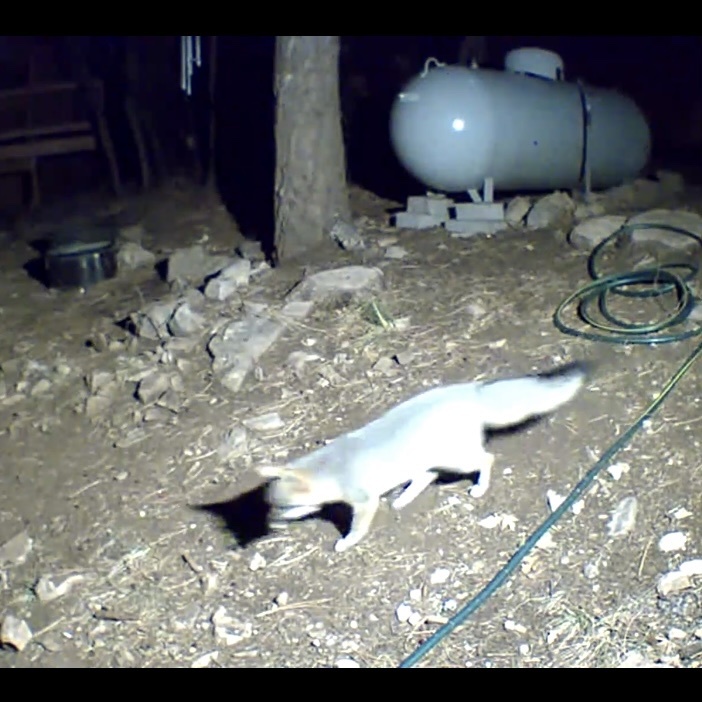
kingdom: Animalia
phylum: Chordata
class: Mammalia
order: Carnivora
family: Canidae
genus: Urocyon
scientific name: Urocyon cinereoargenteus
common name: Gray fox
